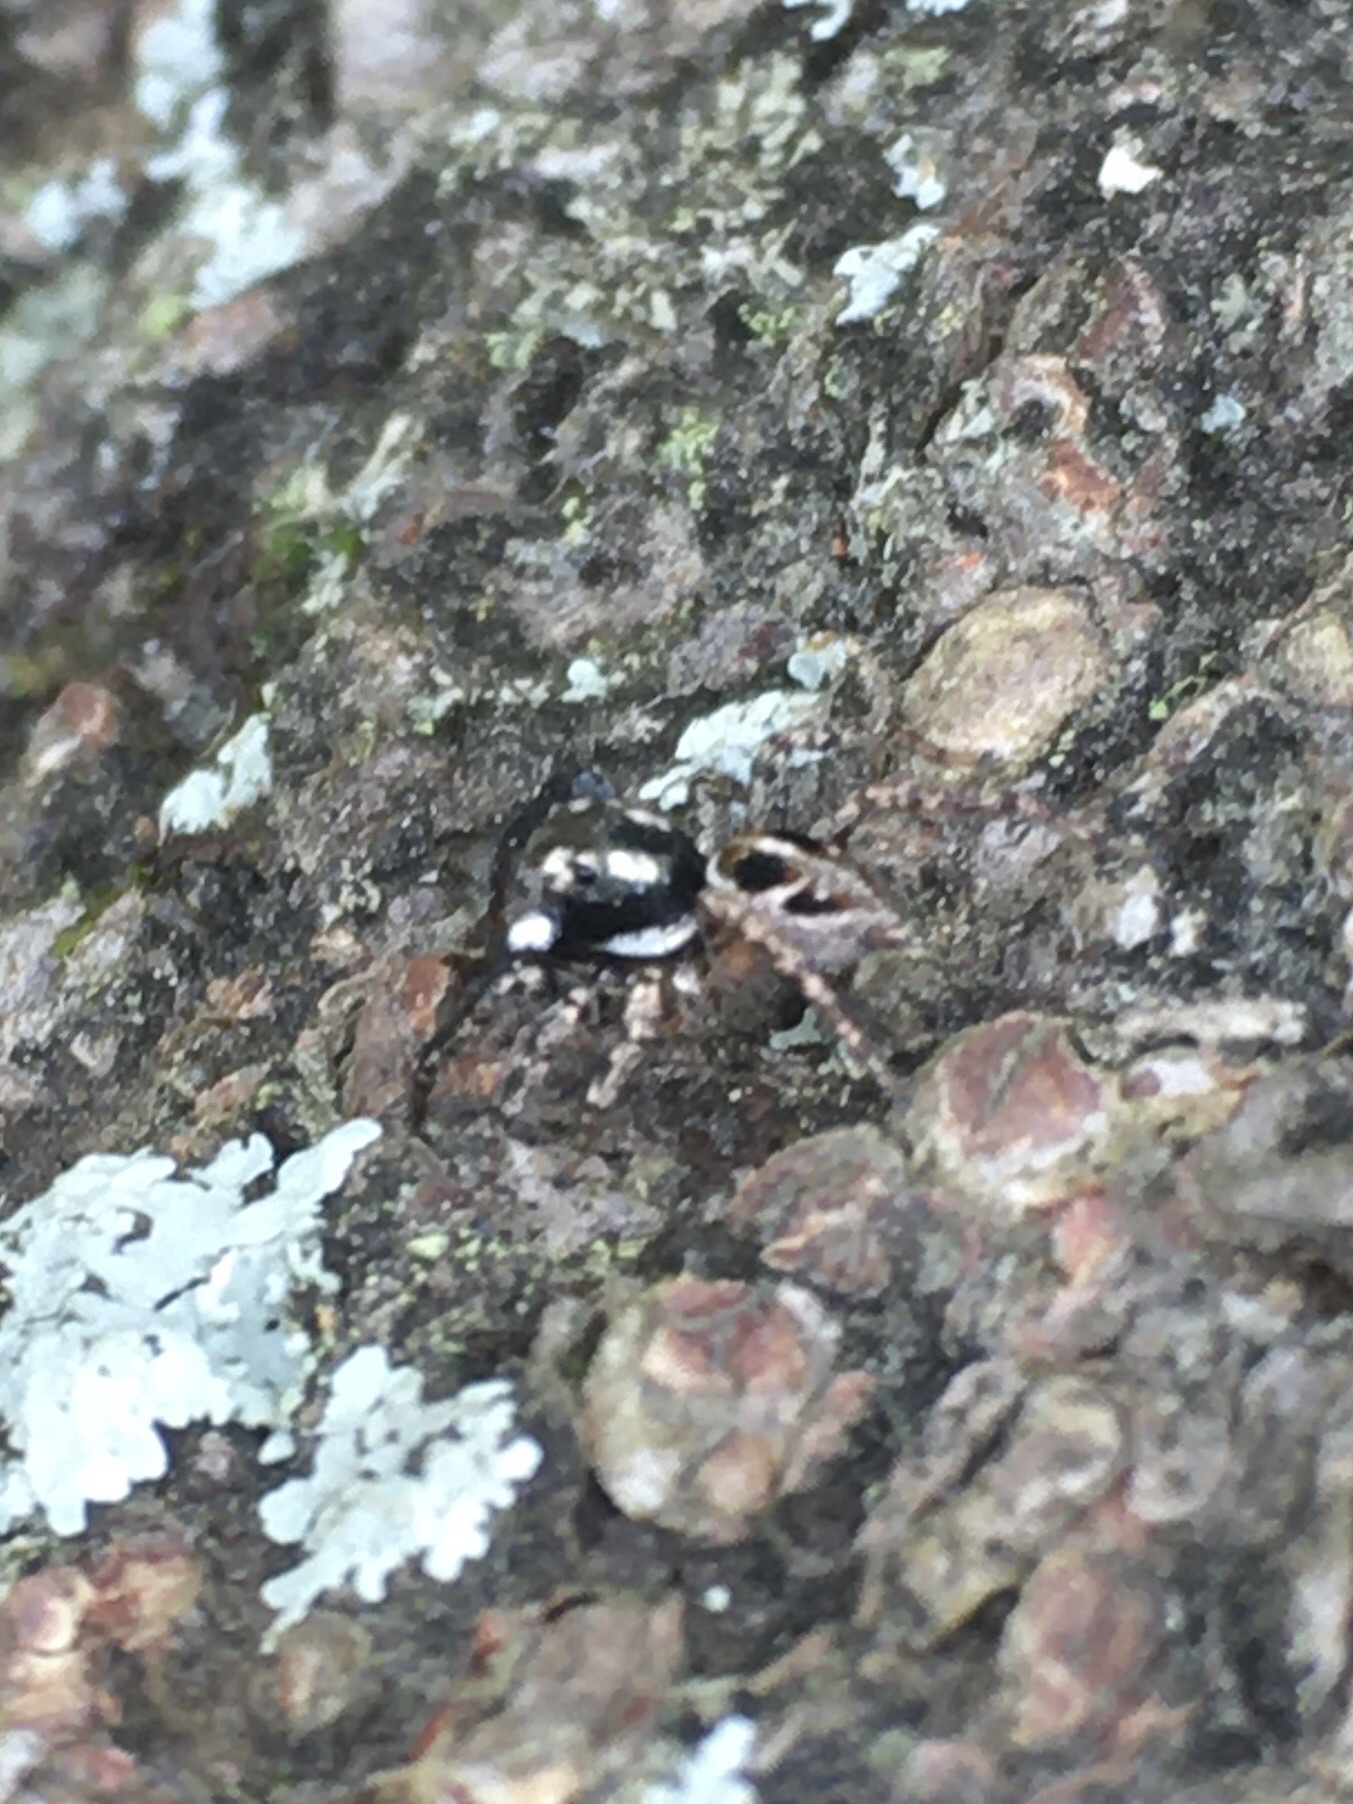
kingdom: Animalia
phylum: Arthropoda
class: Arachnida
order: Araneae
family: Salticidae
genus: Anasaitis
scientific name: Anasaitis canosa
